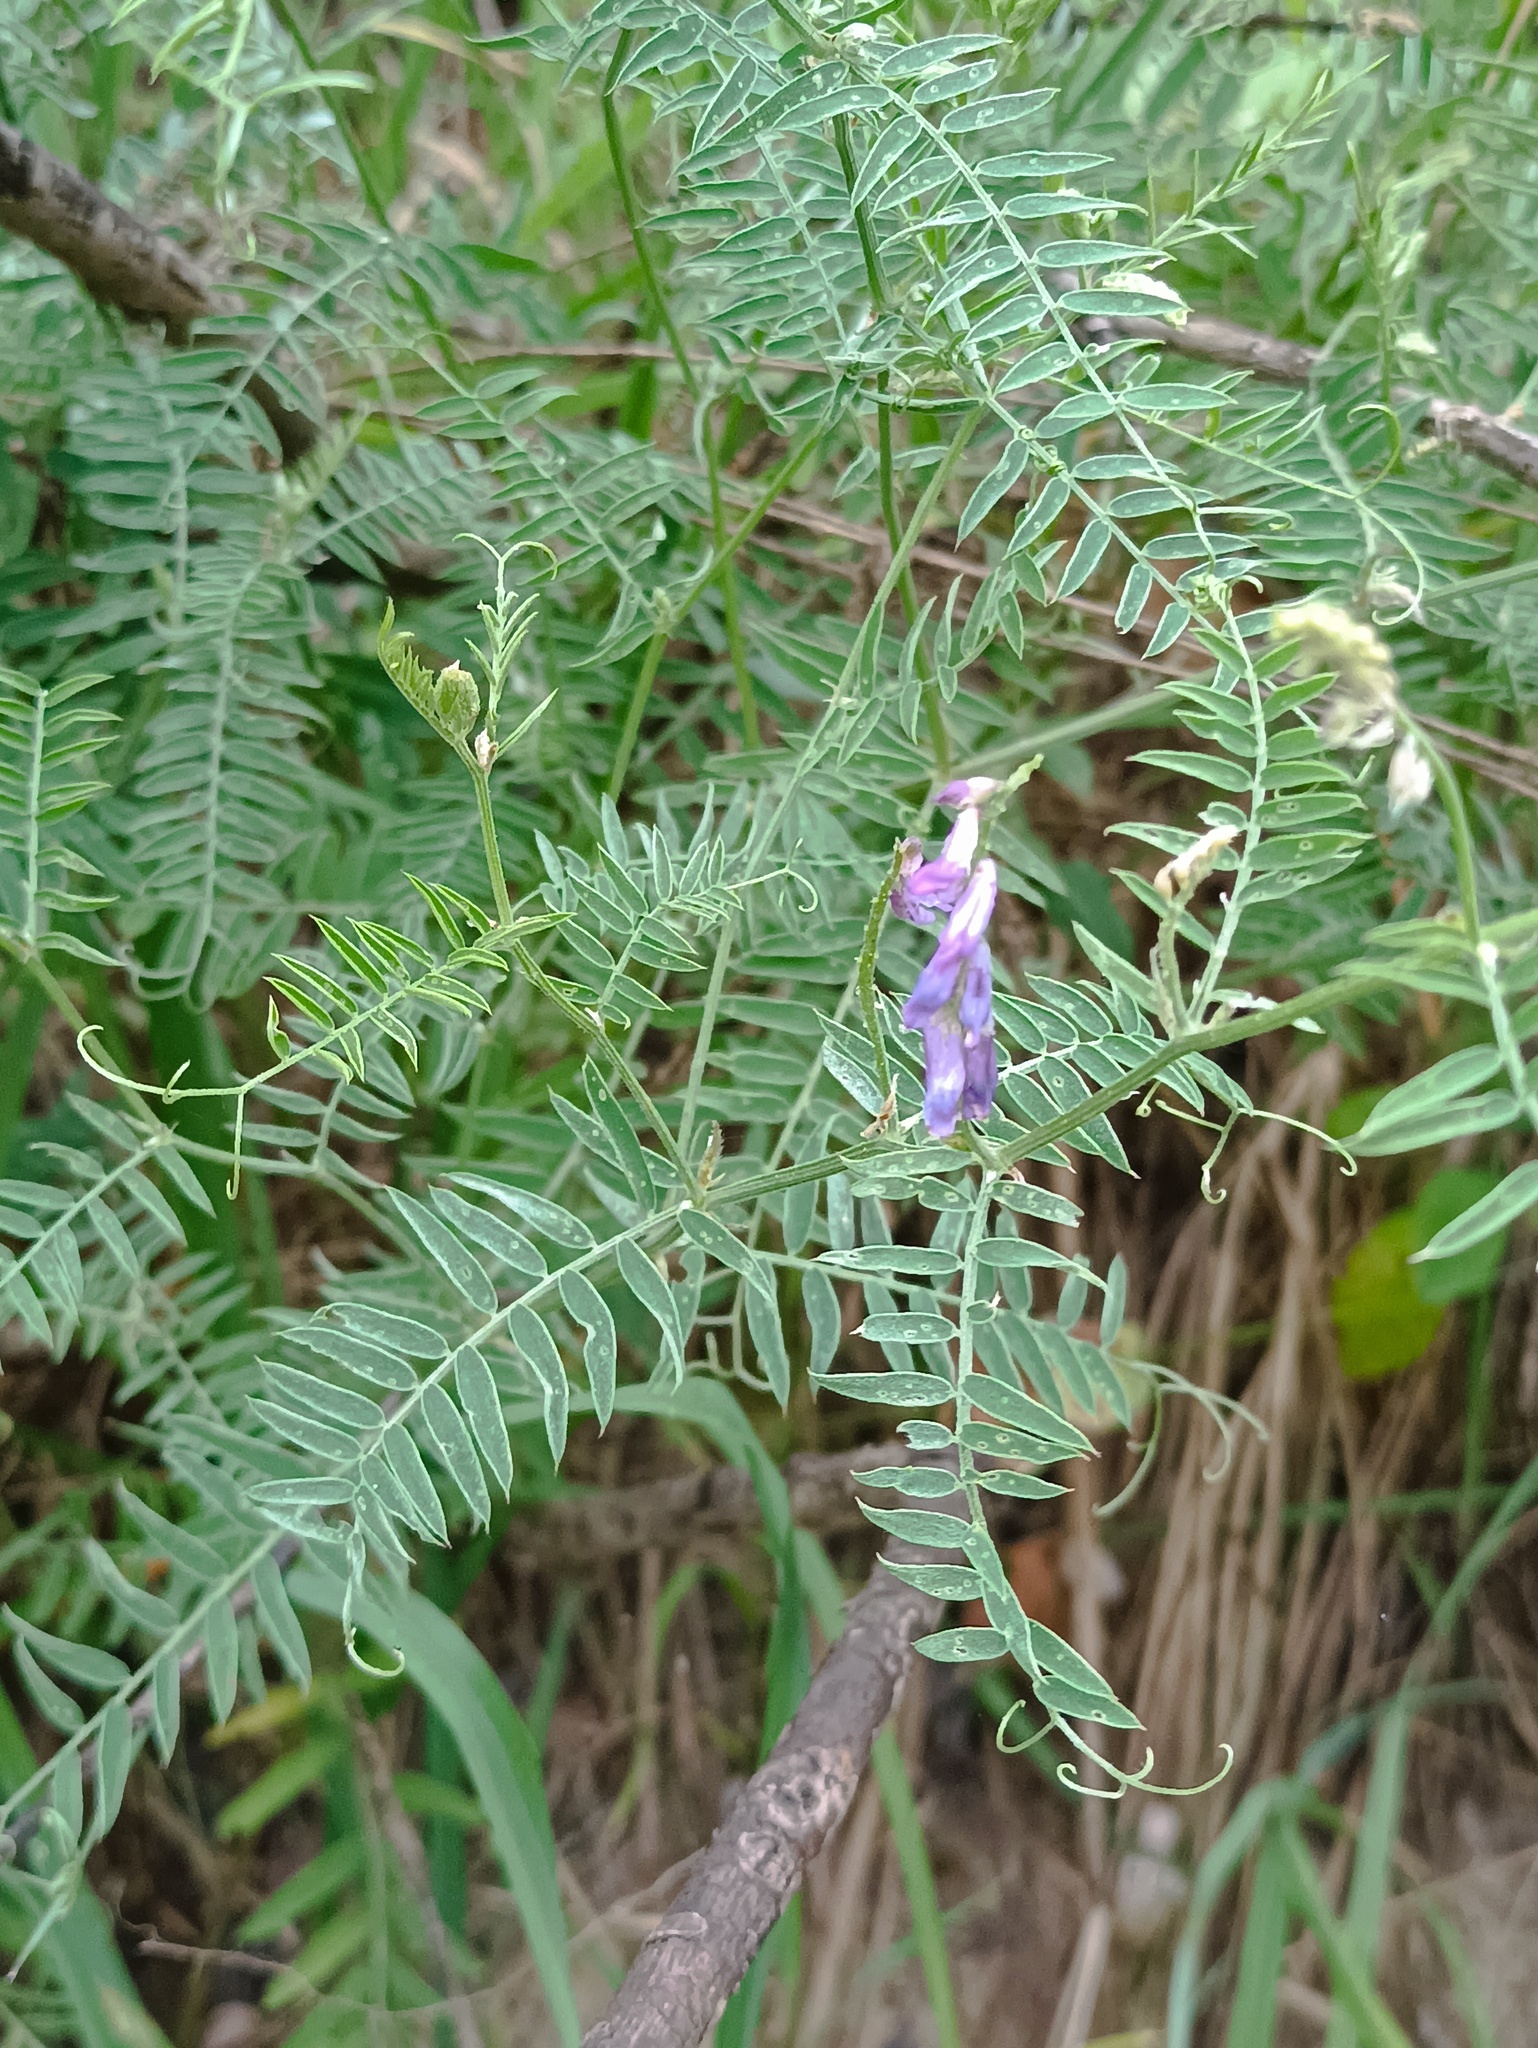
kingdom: Plantae
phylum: Tracheophyta
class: Magnoliopsida
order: Fabales
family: Fabaceae
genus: Vicia
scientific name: Vicia cracca
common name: Bird vetch
